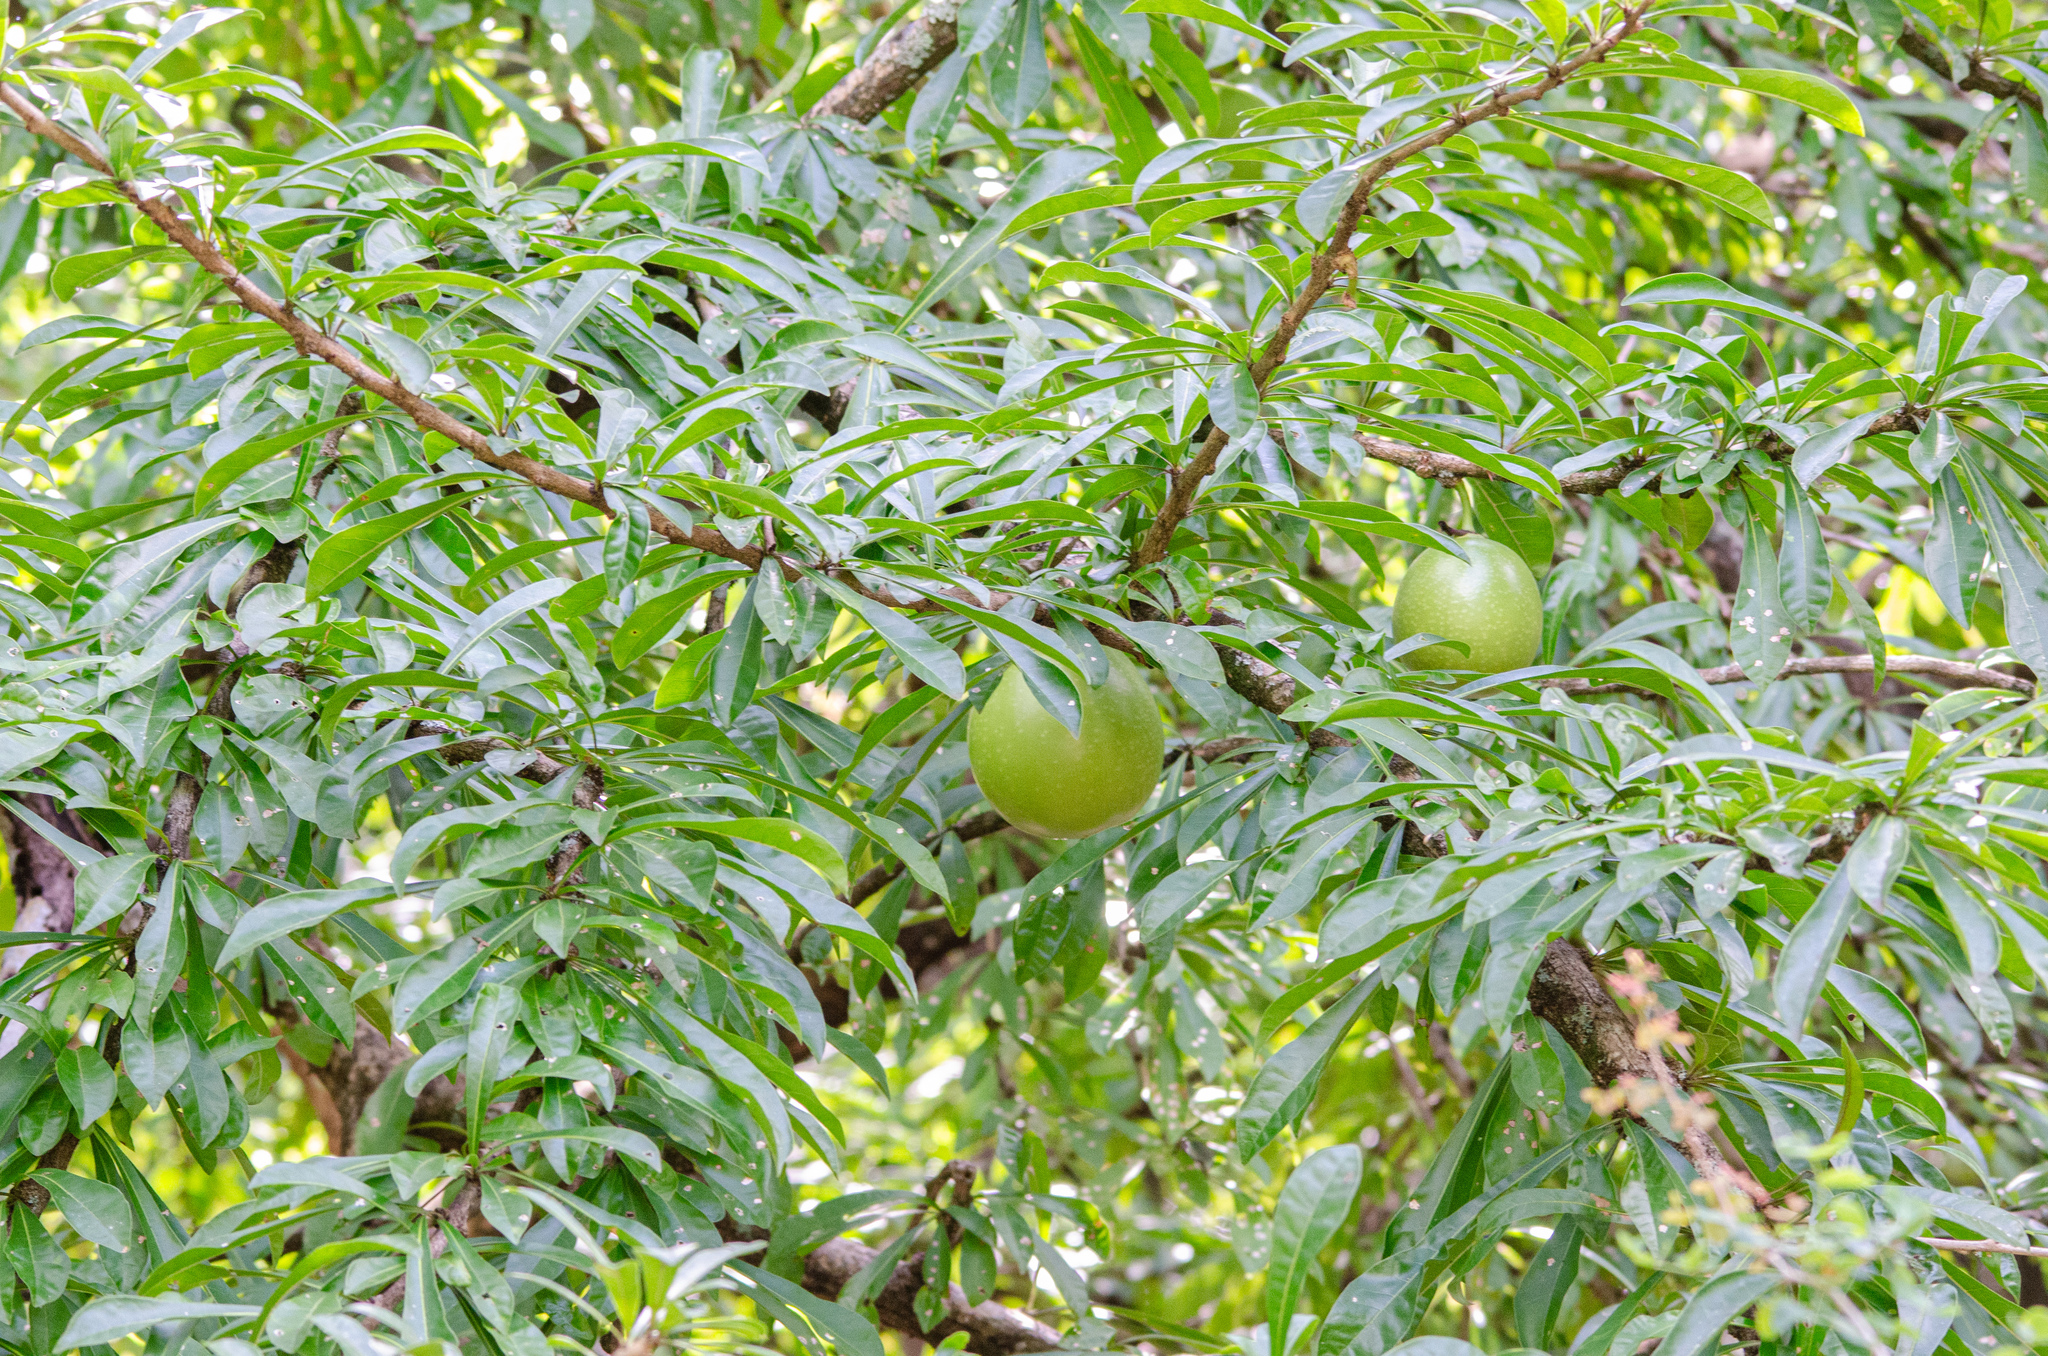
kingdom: Plantae
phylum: Tracheophyta
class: Magnoliopsida
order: Lamiales
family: Bignoniaceae
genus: Crescentia
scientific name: Crescentia cujete
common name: Calabash
